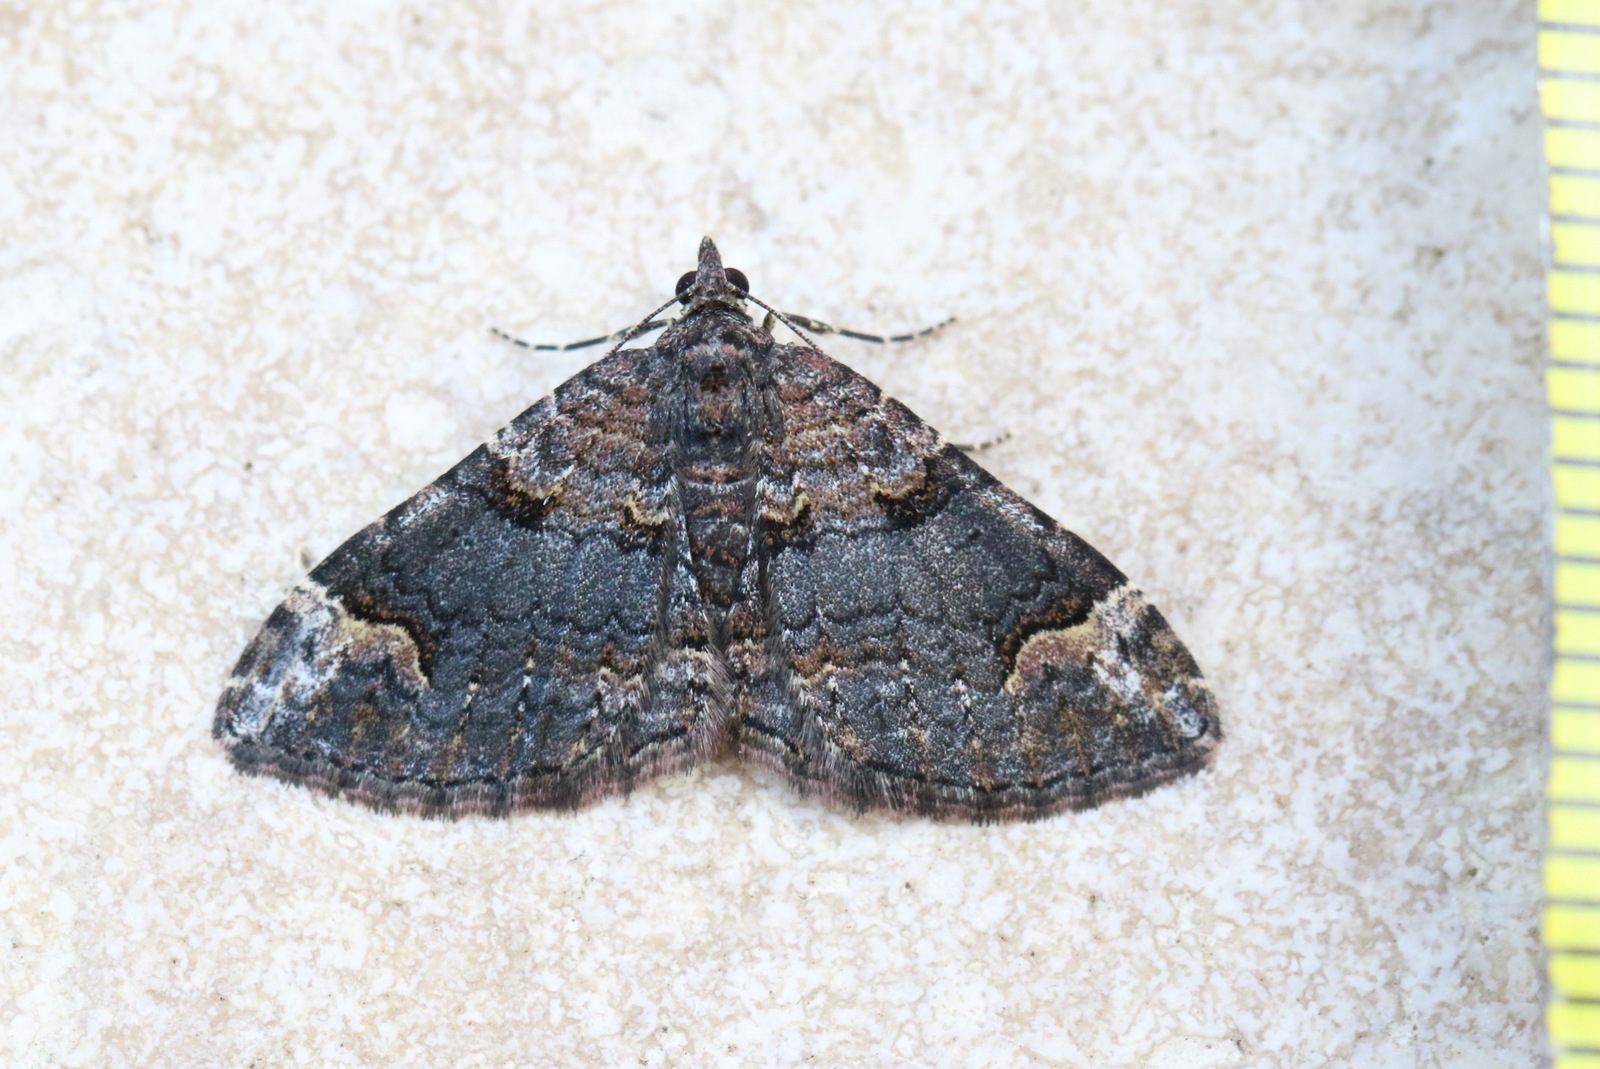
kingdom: Animalia
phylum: Arthropoda
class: Insecta
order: Lepidoptera
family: Geometridae
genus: Epyaxa
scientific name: Epyaxa sodaliata
